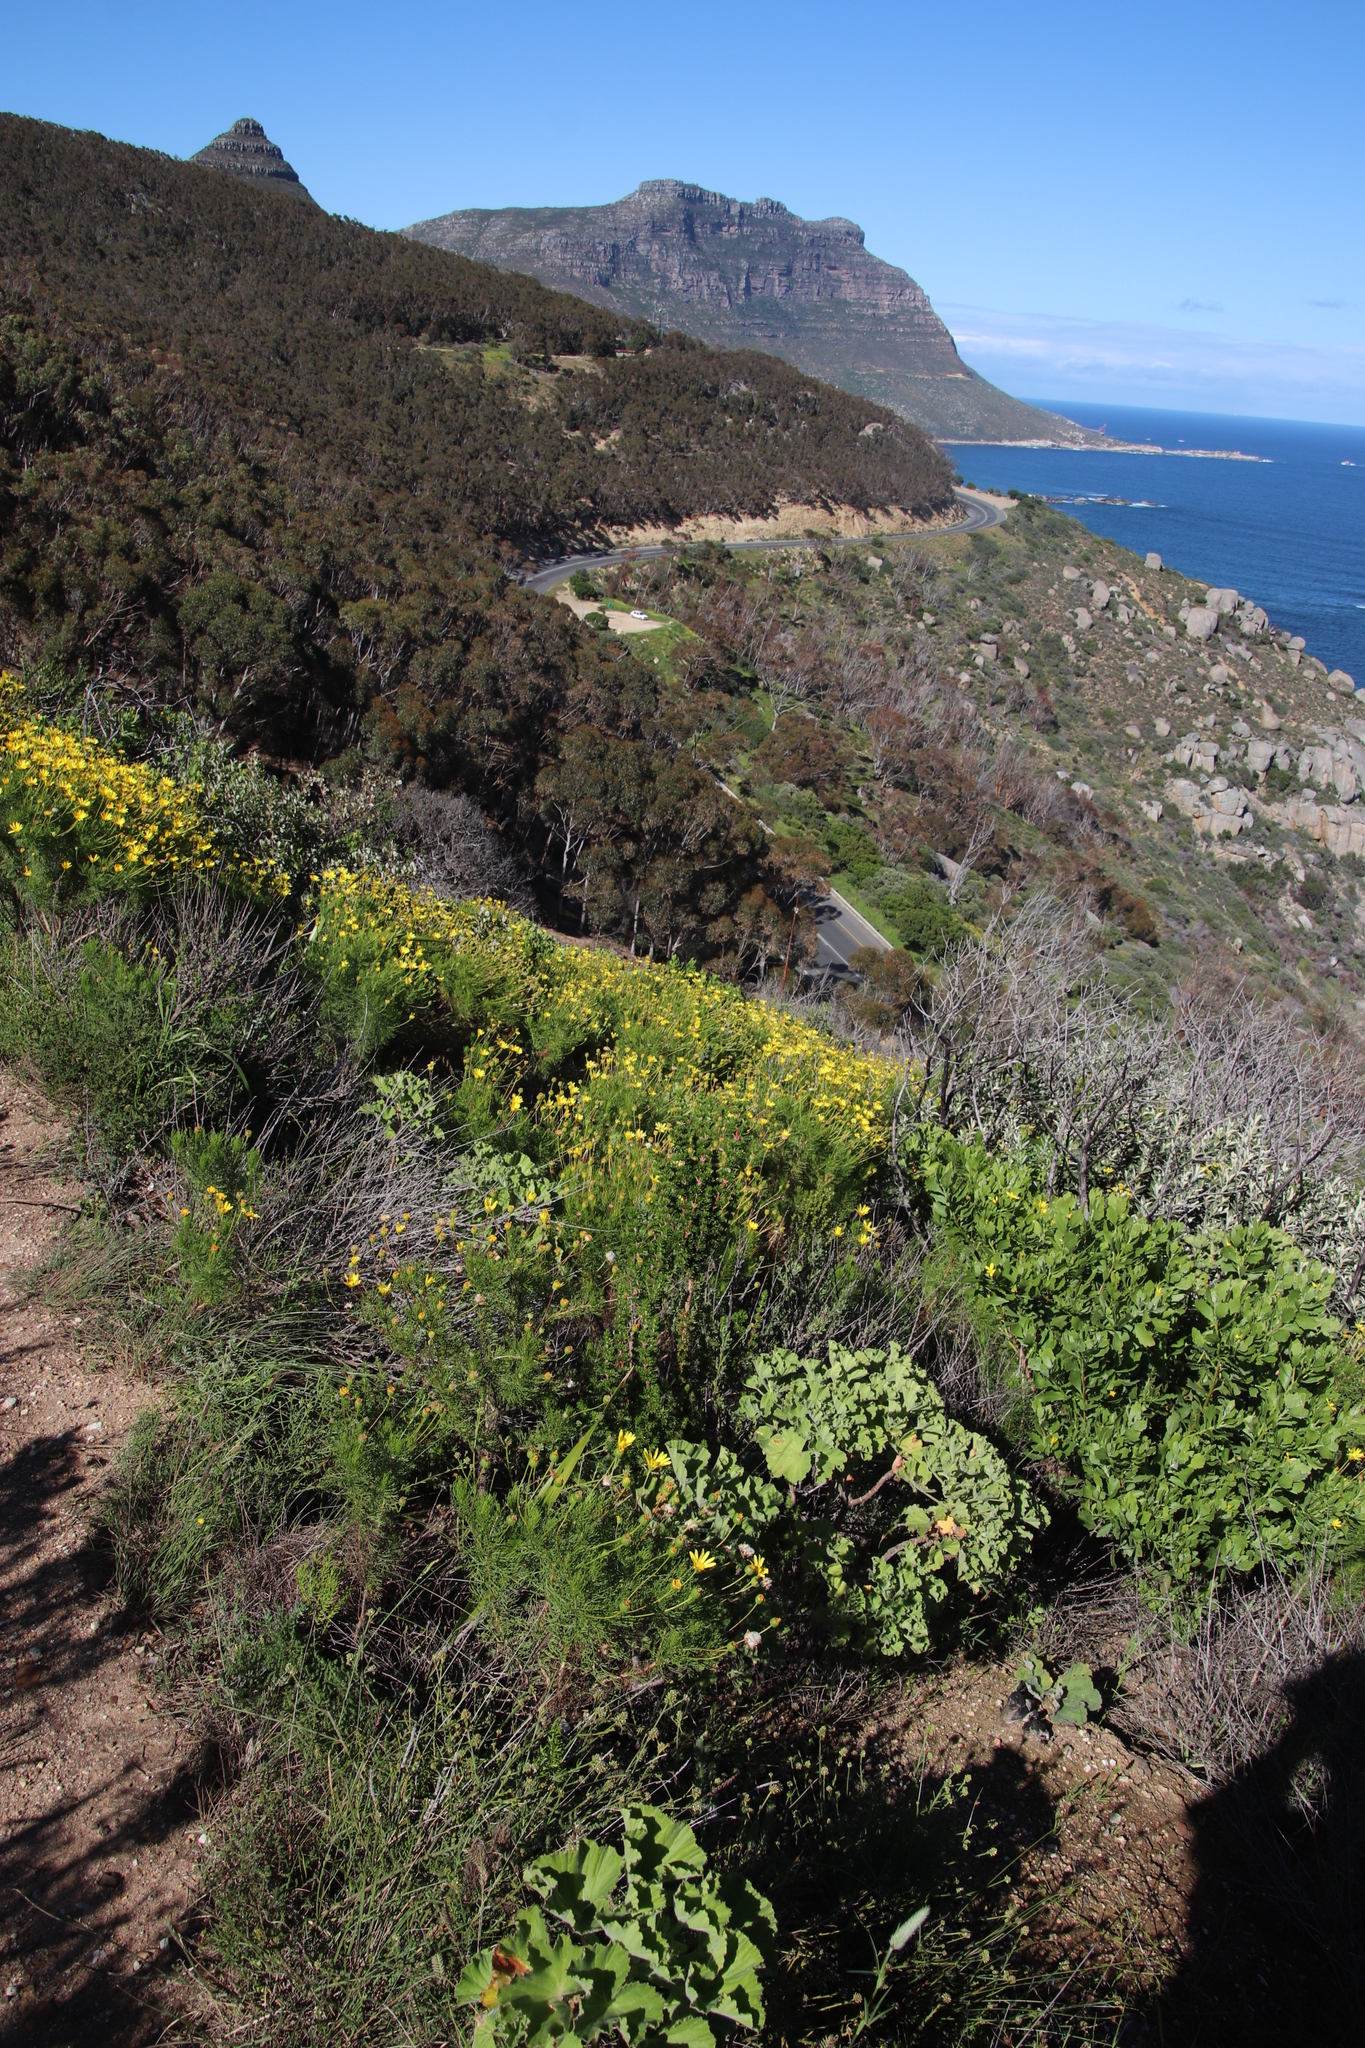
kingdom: Plantae
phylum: Tracheophyta
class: Magnoliopsida
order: Asterales
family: Asteraceae
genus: Euryops
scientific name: Euryops abrotanifolius
